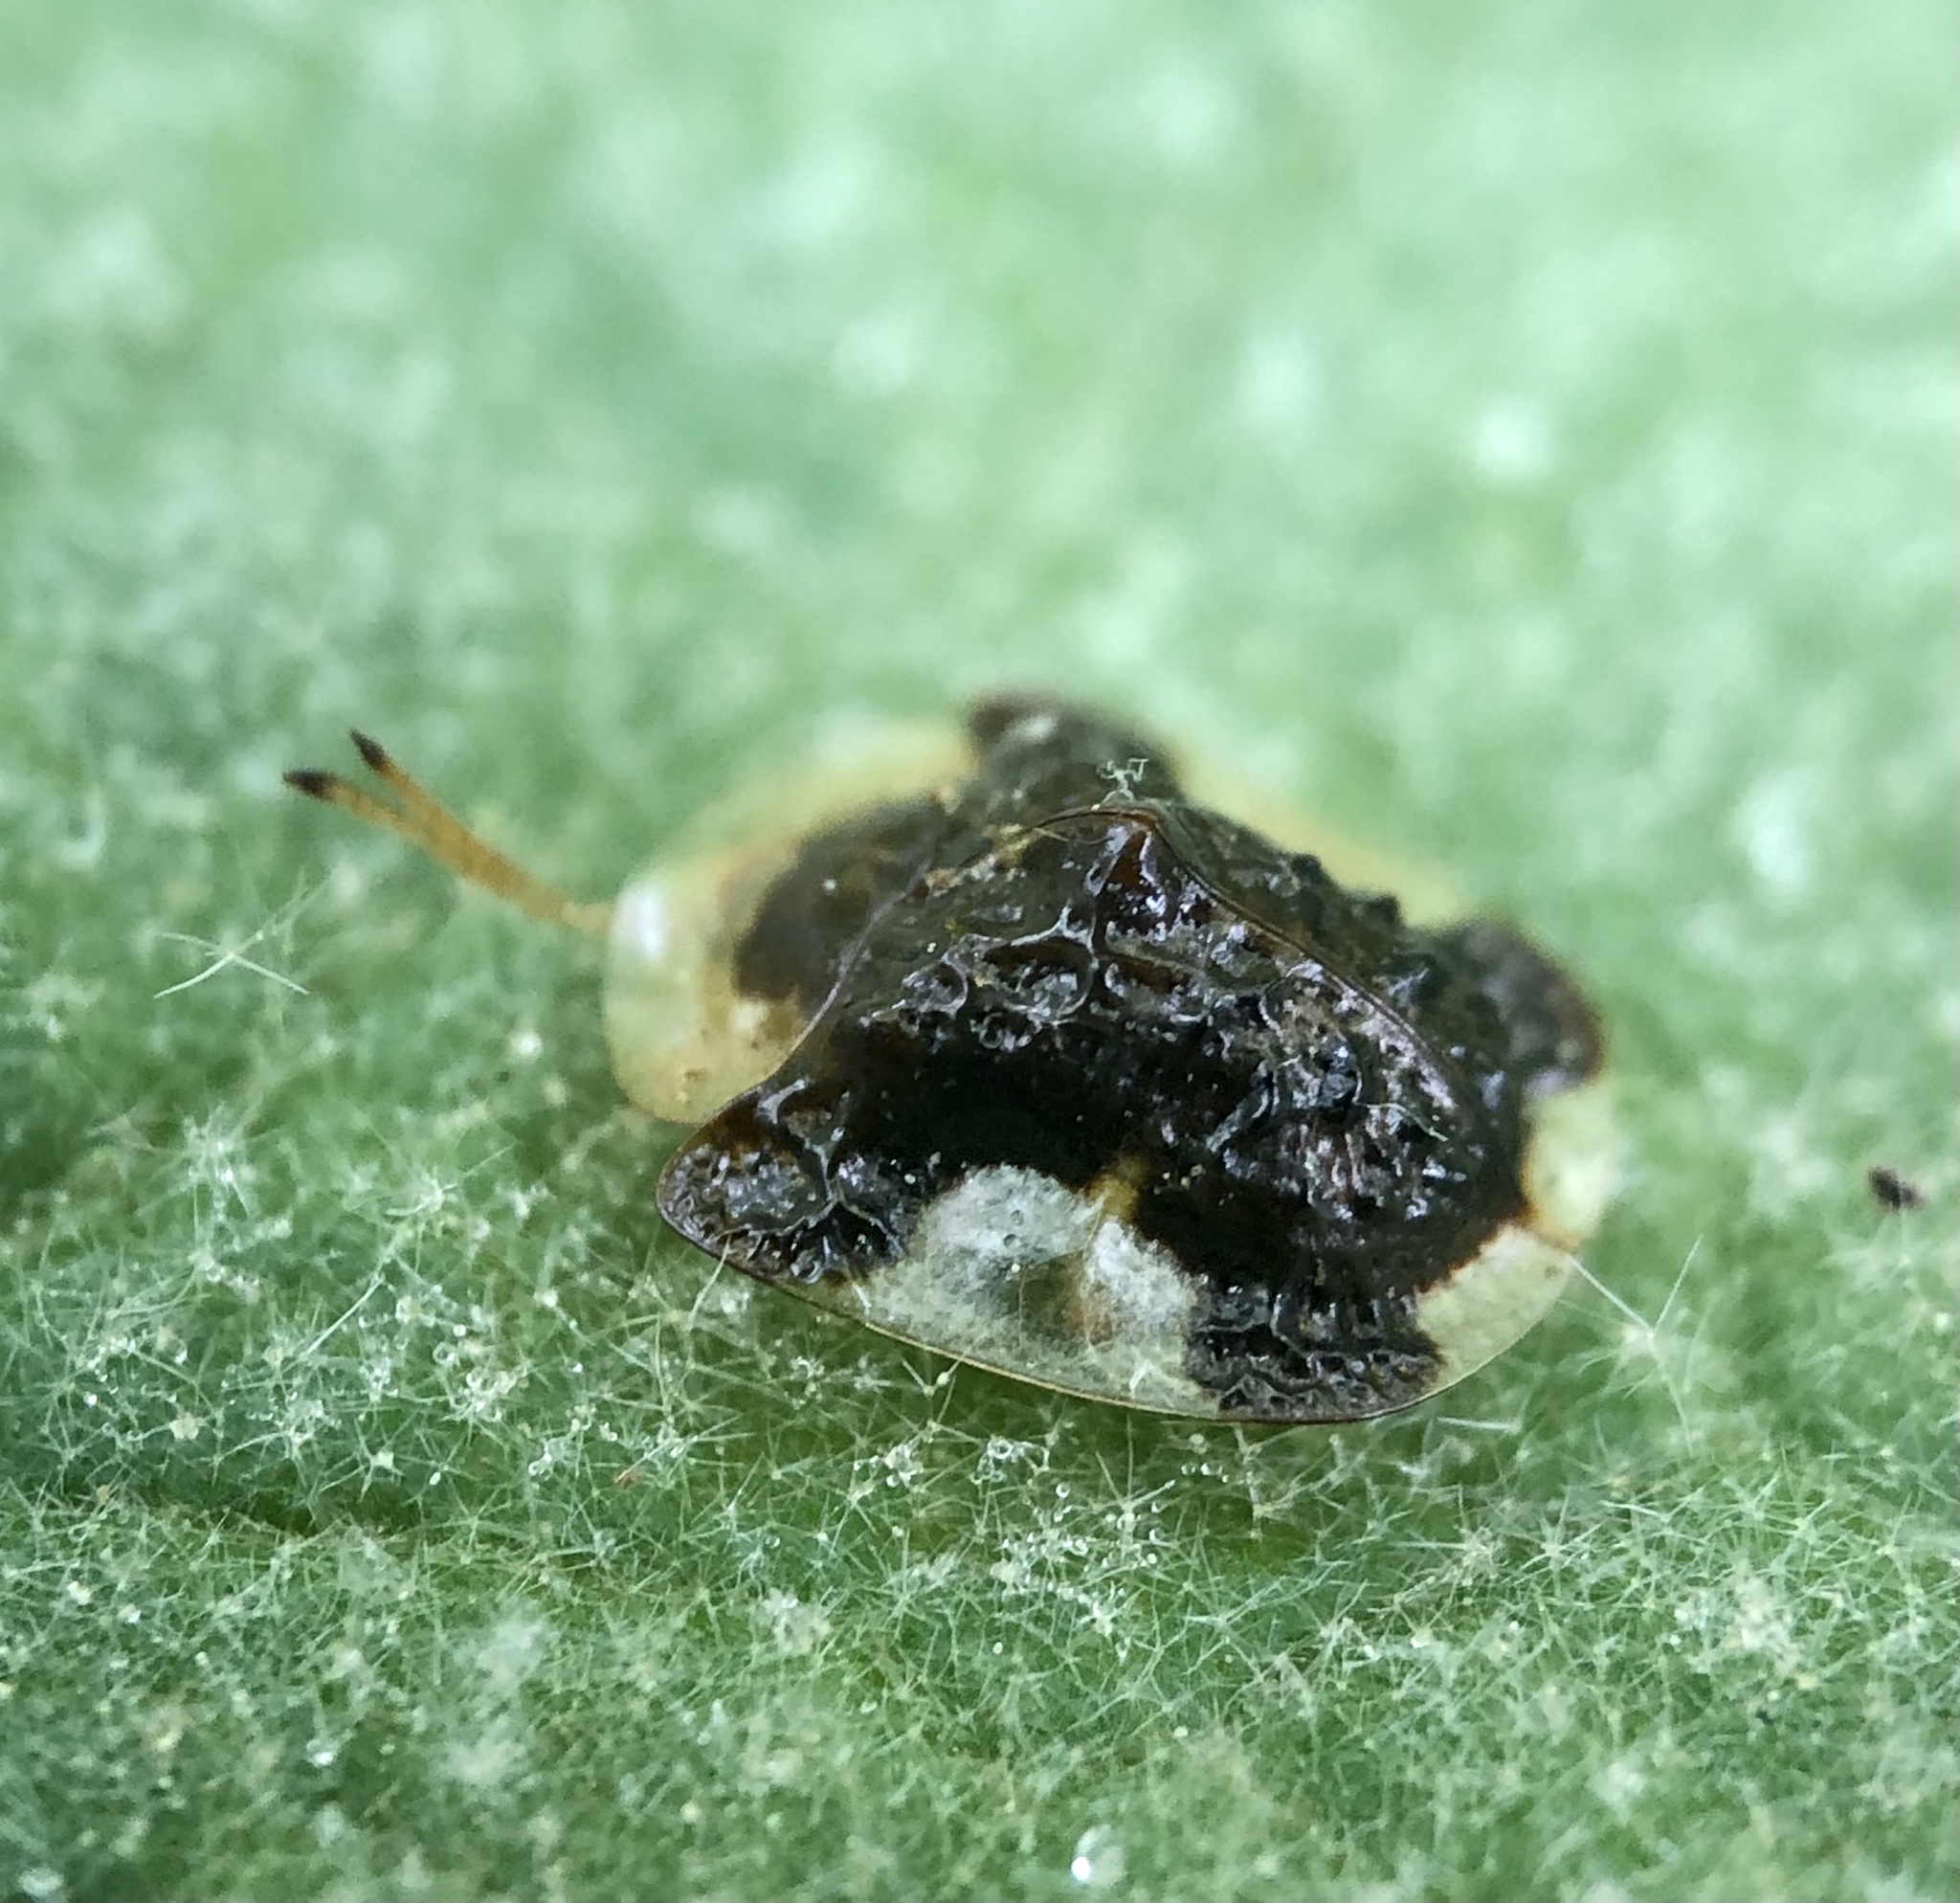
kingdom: Animalia
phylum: Arthropoda
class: Insecta
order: Coleoptera
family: Chrysomelidae
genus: Helocassis
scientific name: Helocassis clavata
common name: Clavate tortoise beetle
